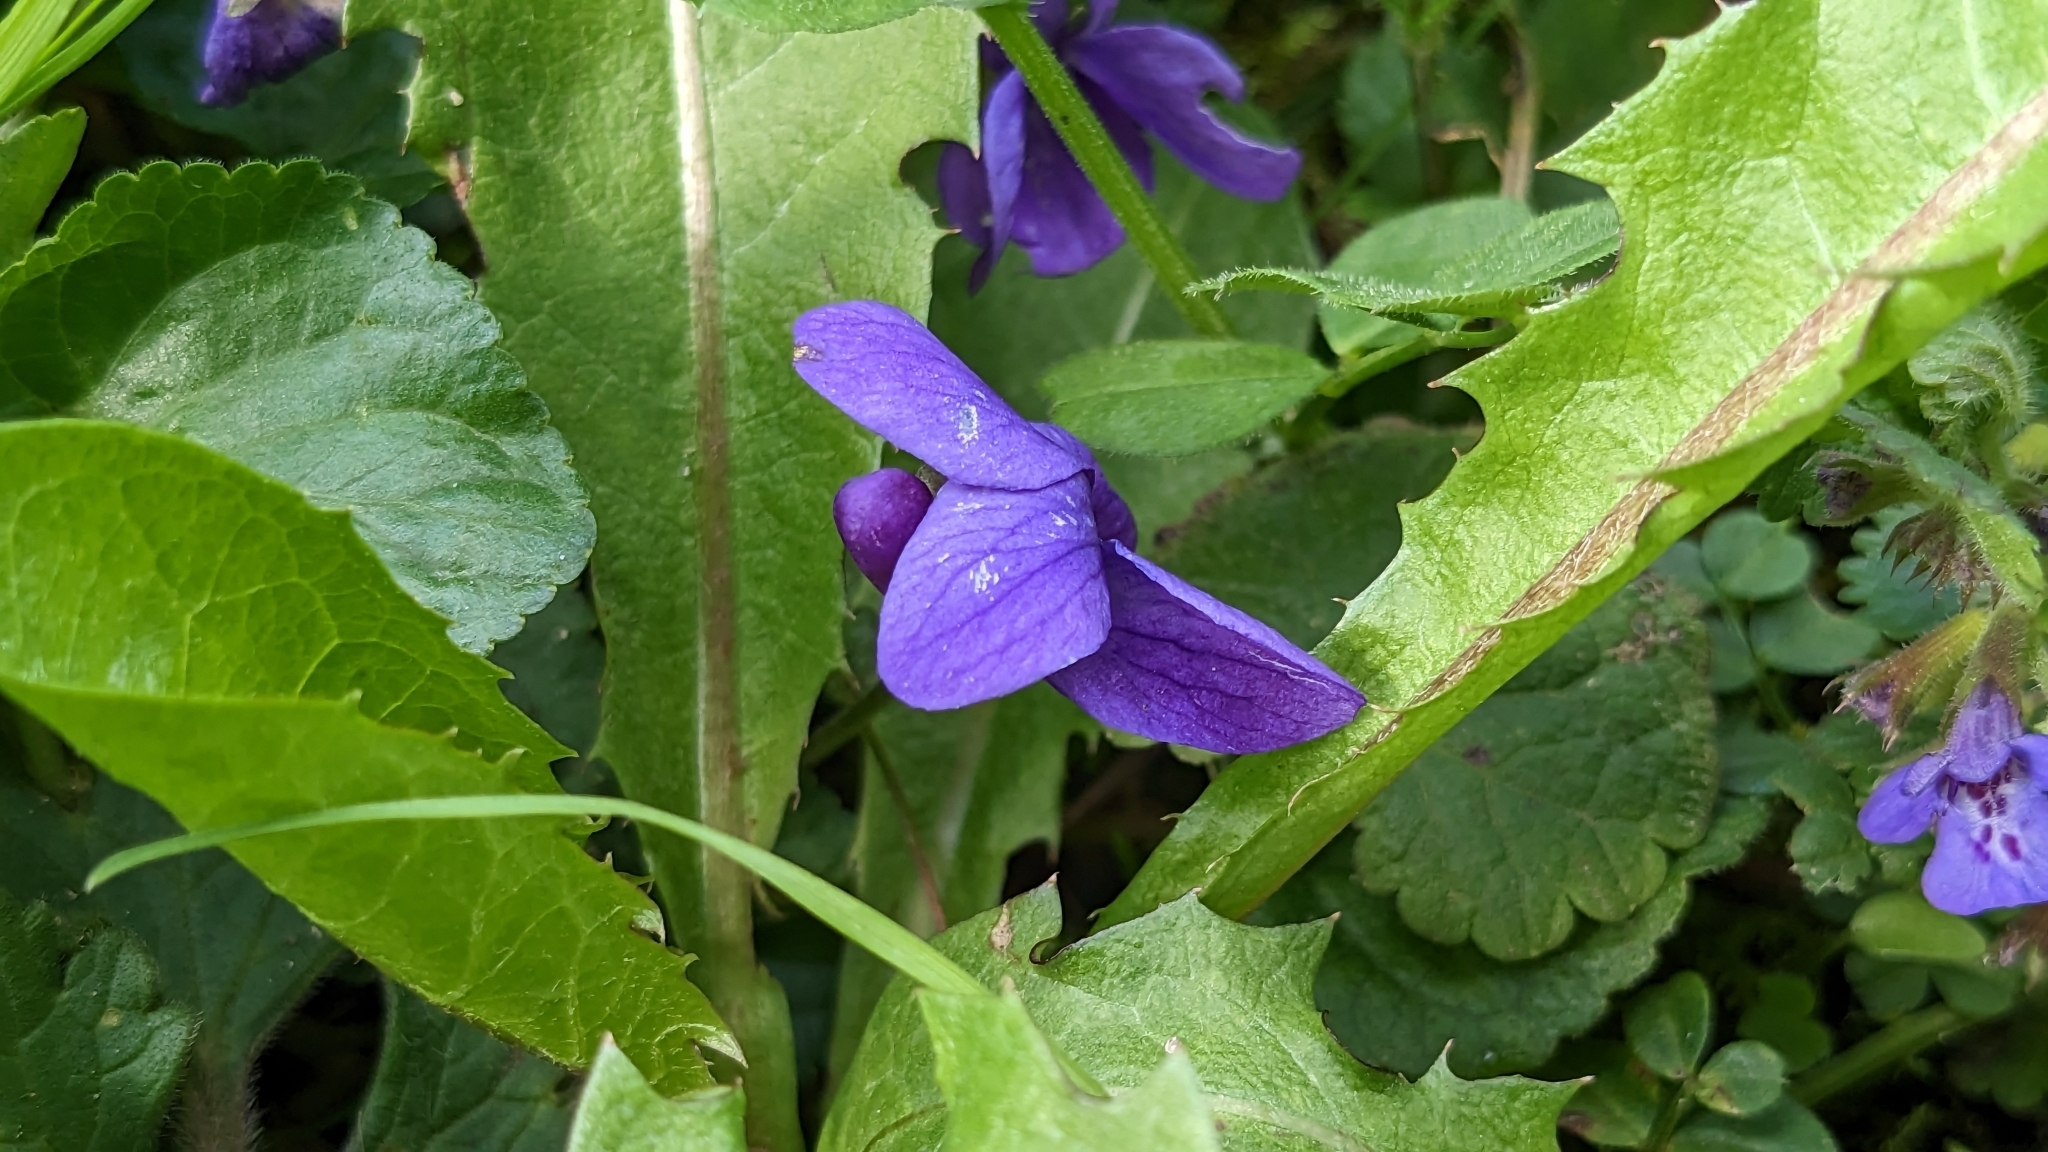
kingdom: Plantae
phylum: Tracheophyta
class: Magnoliopsida
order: Malpighiales
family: Violaceae
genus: Viola
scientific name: Viola reichenbachiana
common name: Early dog-violet
